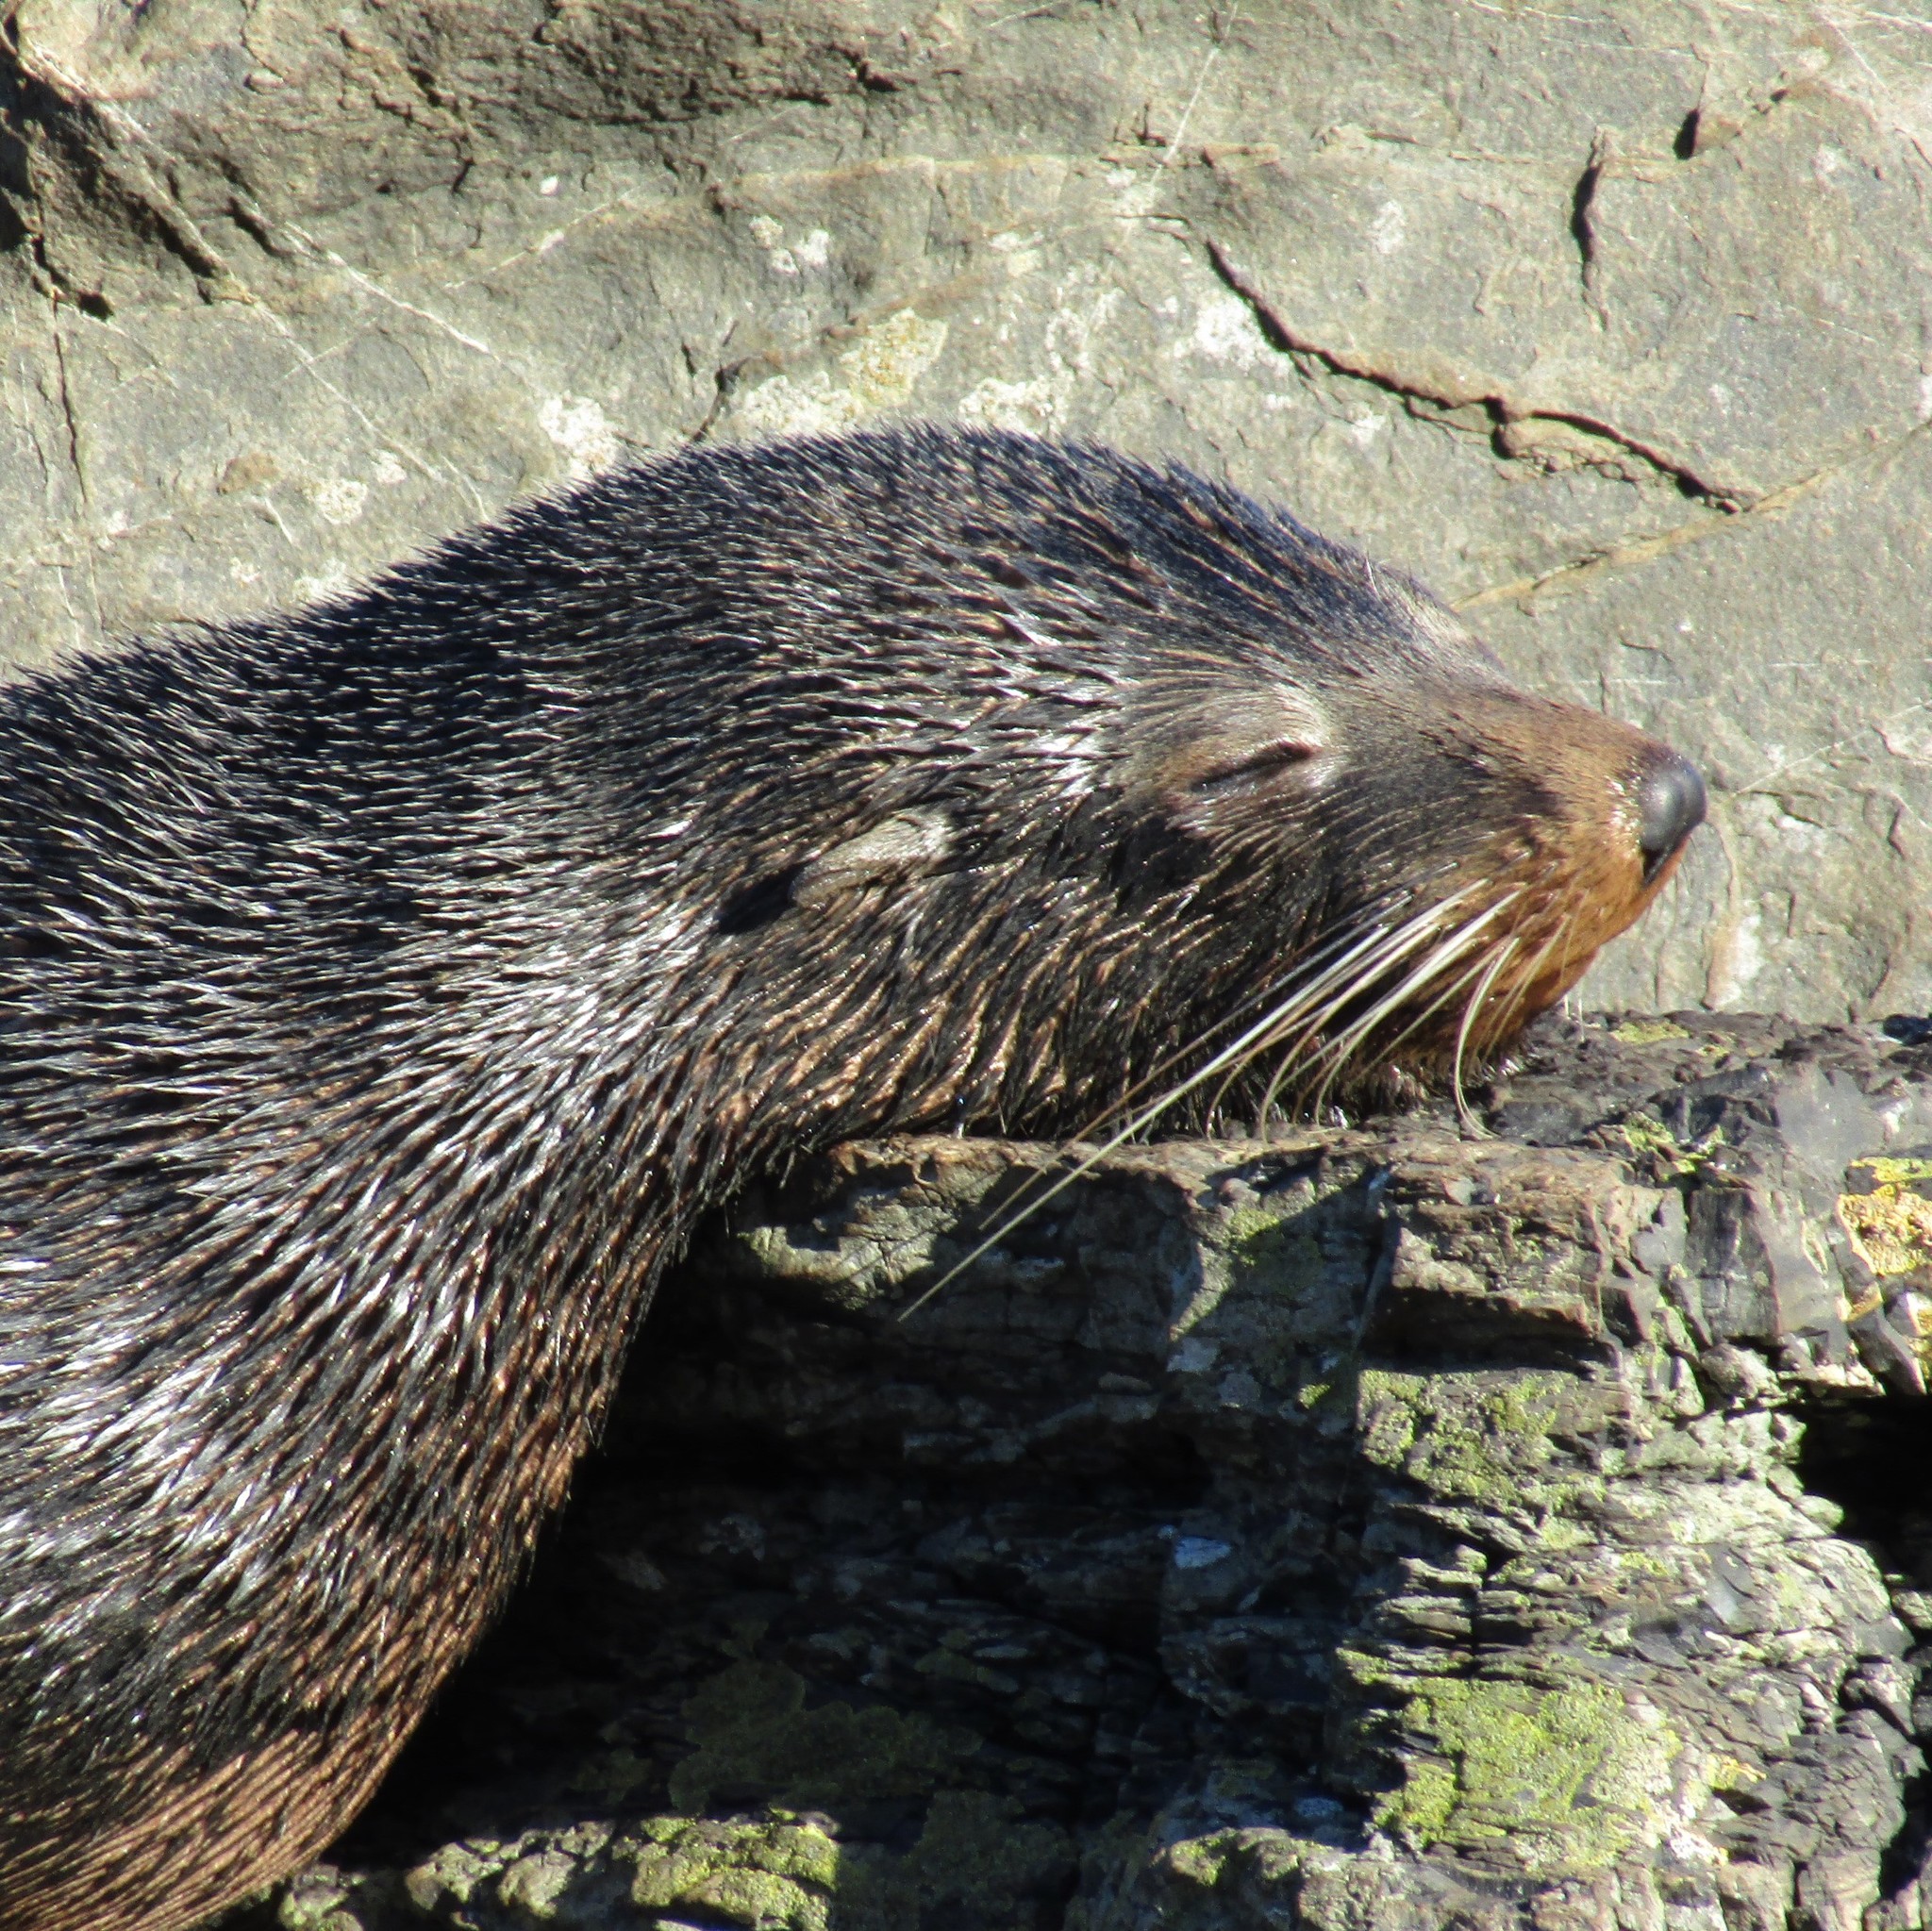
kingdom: Animalia
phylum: Chordata
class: Mammalia
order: Carnivora
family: Otariidae
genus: Arctocephalus
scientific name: Arctocephalus forsteri
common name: New zealand fur seal
